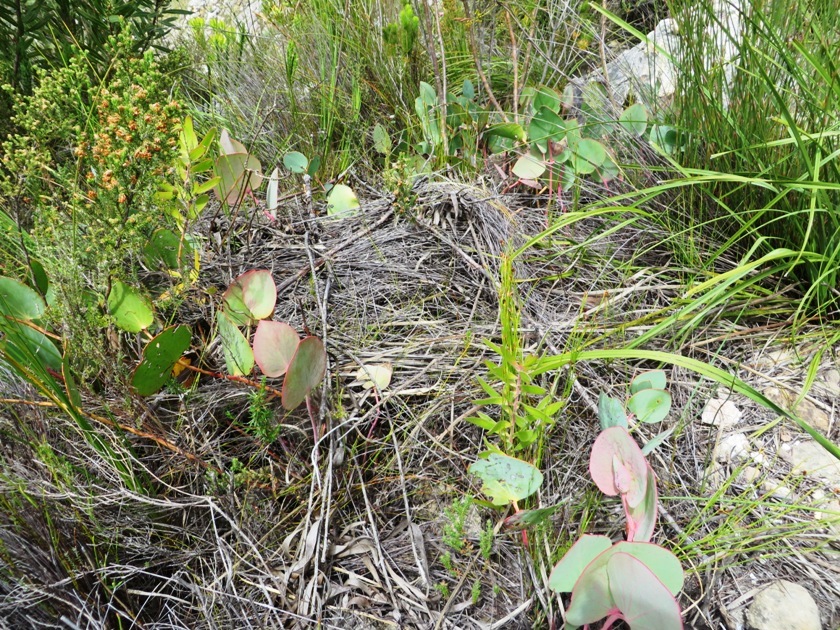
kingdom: Plantae
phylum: Tracheophyta
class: Magnoliopsida
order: Proteales
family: Proteaceae
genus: Protea
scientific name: Protea cordata
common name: Heart-leaf sugarbush
